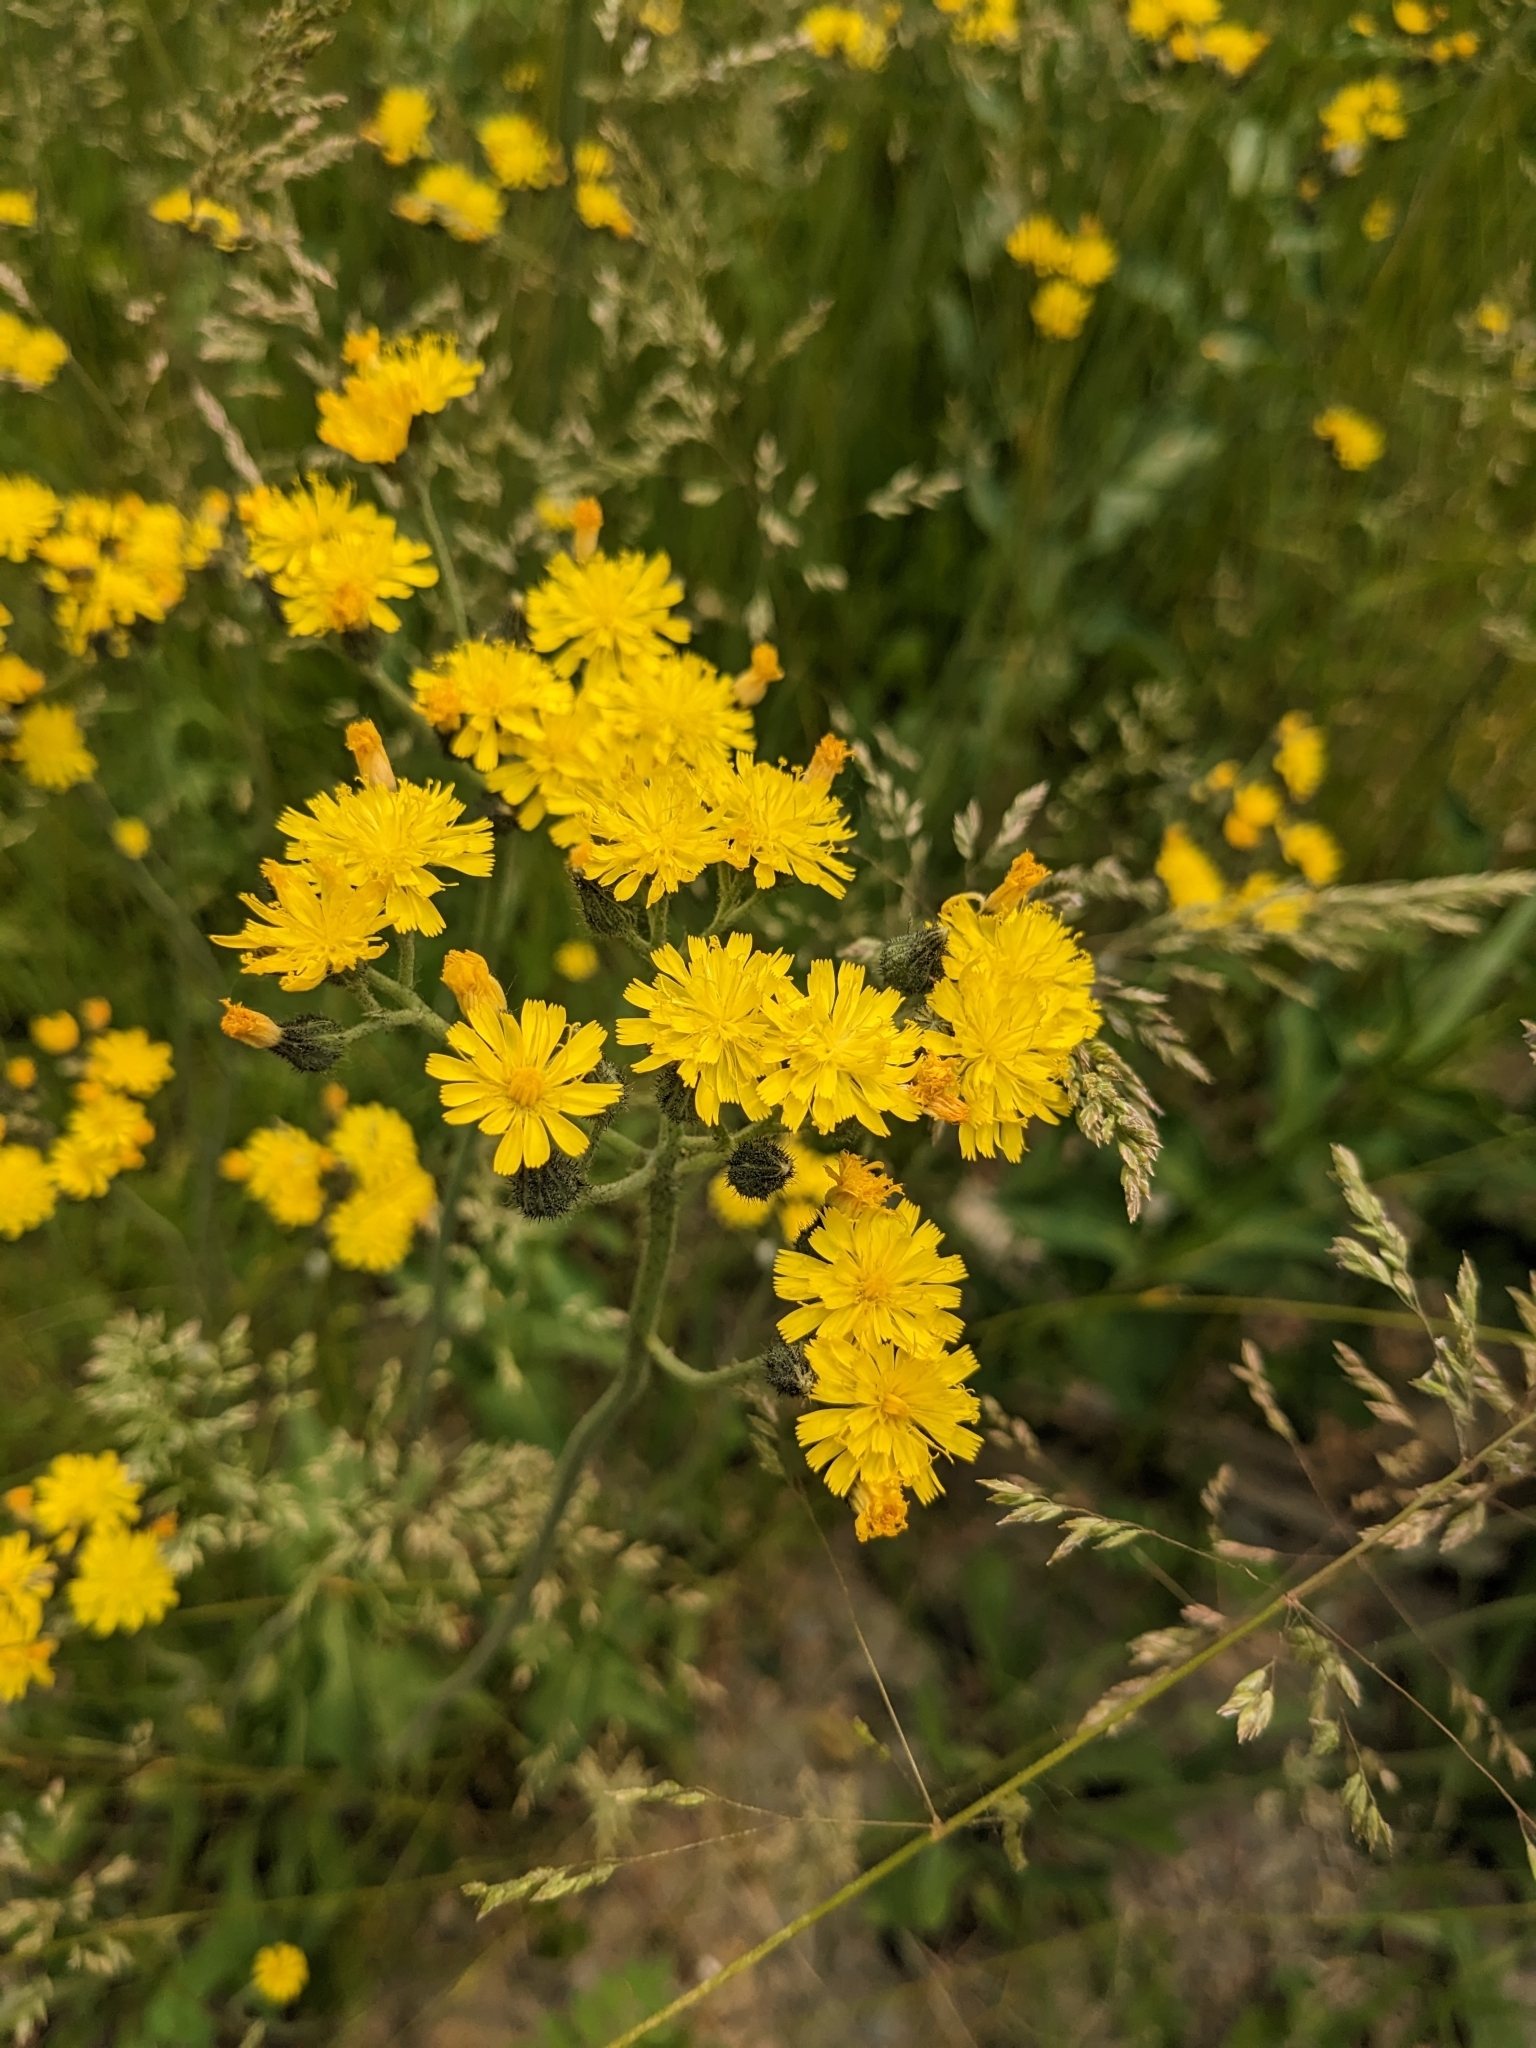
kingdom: Plantae
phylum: Tracheophyta
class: Magnoliopsida
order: Asterales
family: Asteraceae
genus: Pilosella
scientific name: Pilosella caespitosa
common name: Yellow fox-and-cubs
